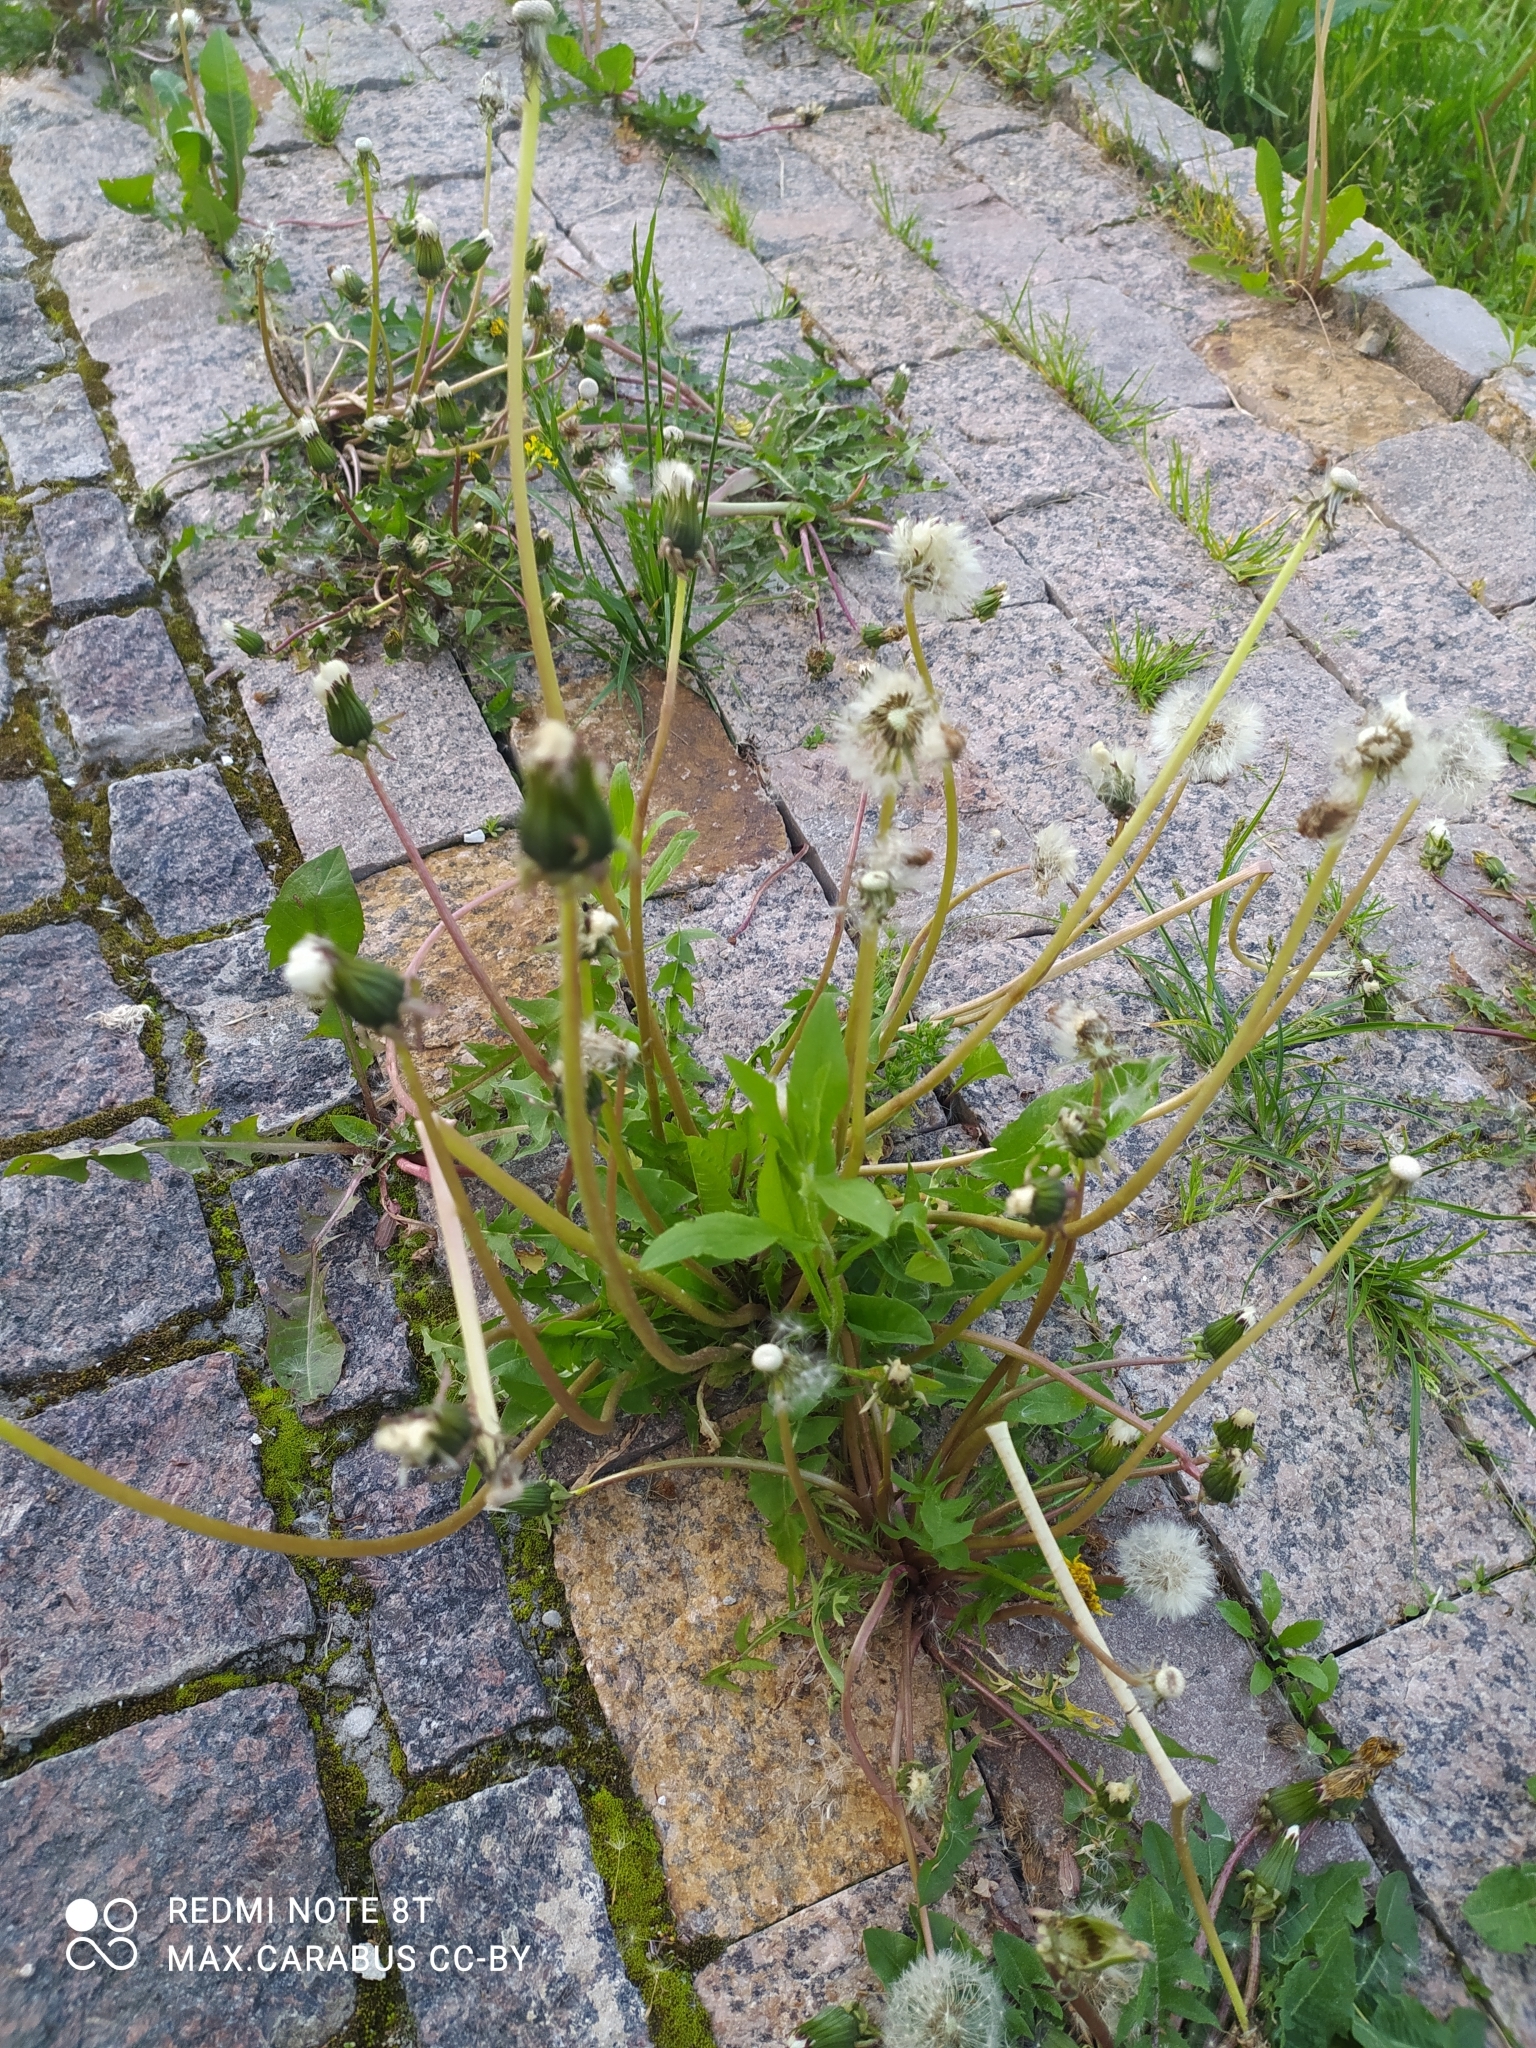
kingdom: Plantae
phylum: Tracheophyta
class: Magnoliopsida
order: Asterales
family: Asteraceae
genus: Taraxacum
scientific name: Taraxacum officinale
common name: Common dandelion
